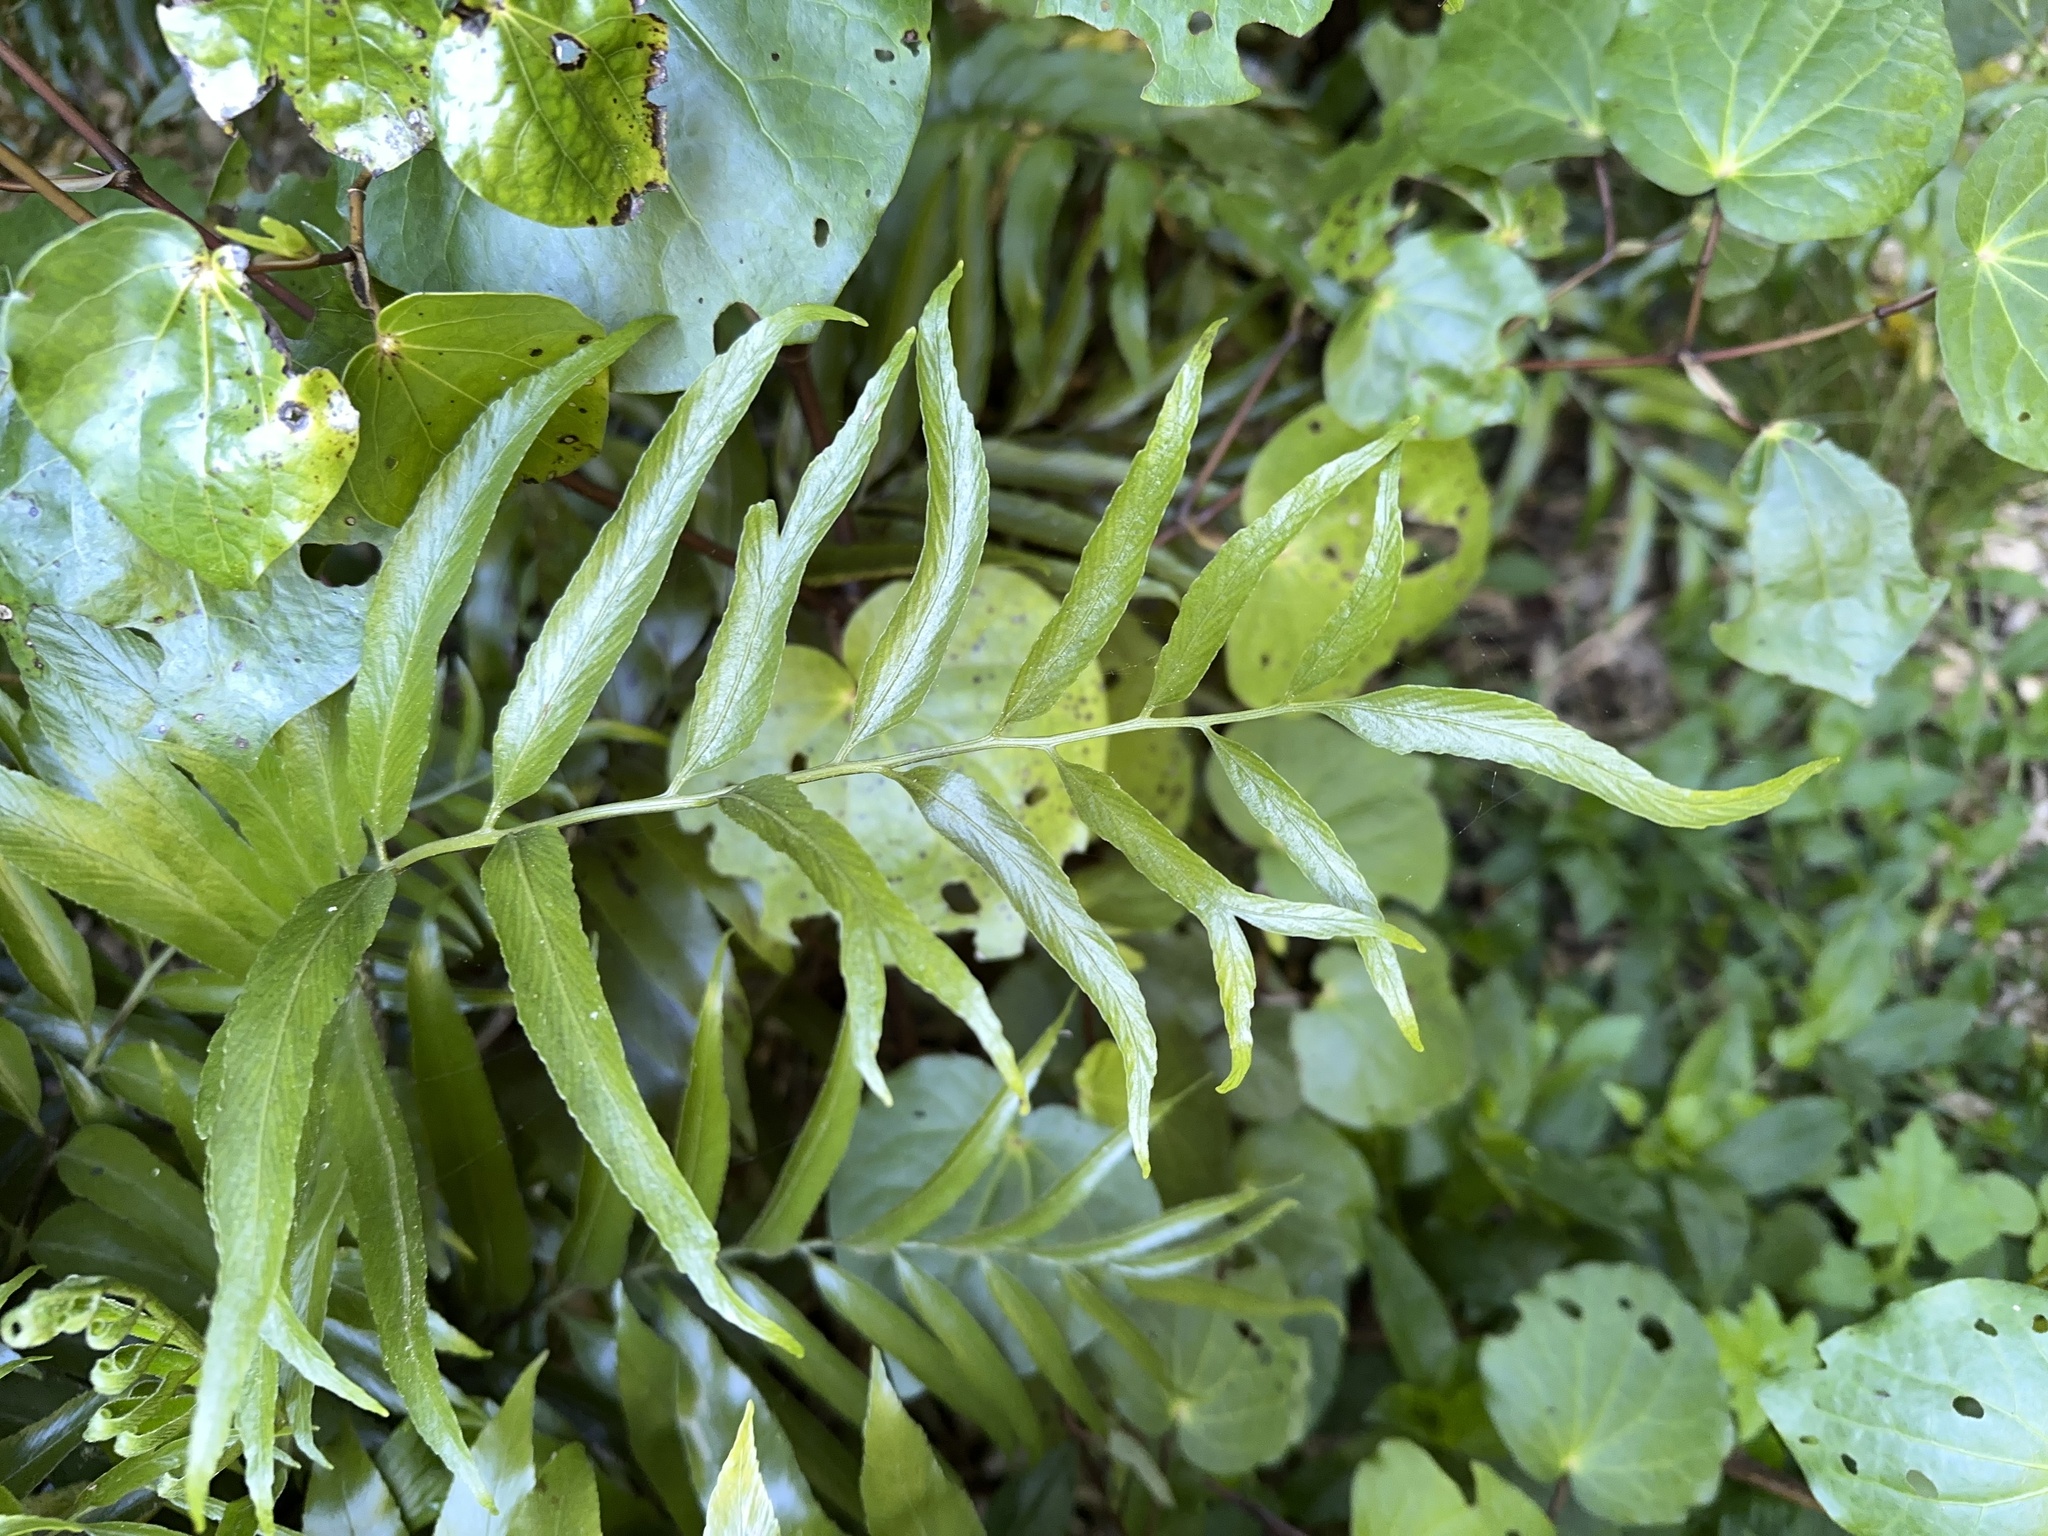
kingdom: Plantae
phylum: Tracheophyta
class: Polypodiopsida
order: Polypodiales
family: Aspleniaceae
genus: Asplenium
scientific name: Asplenium oblongifolium
